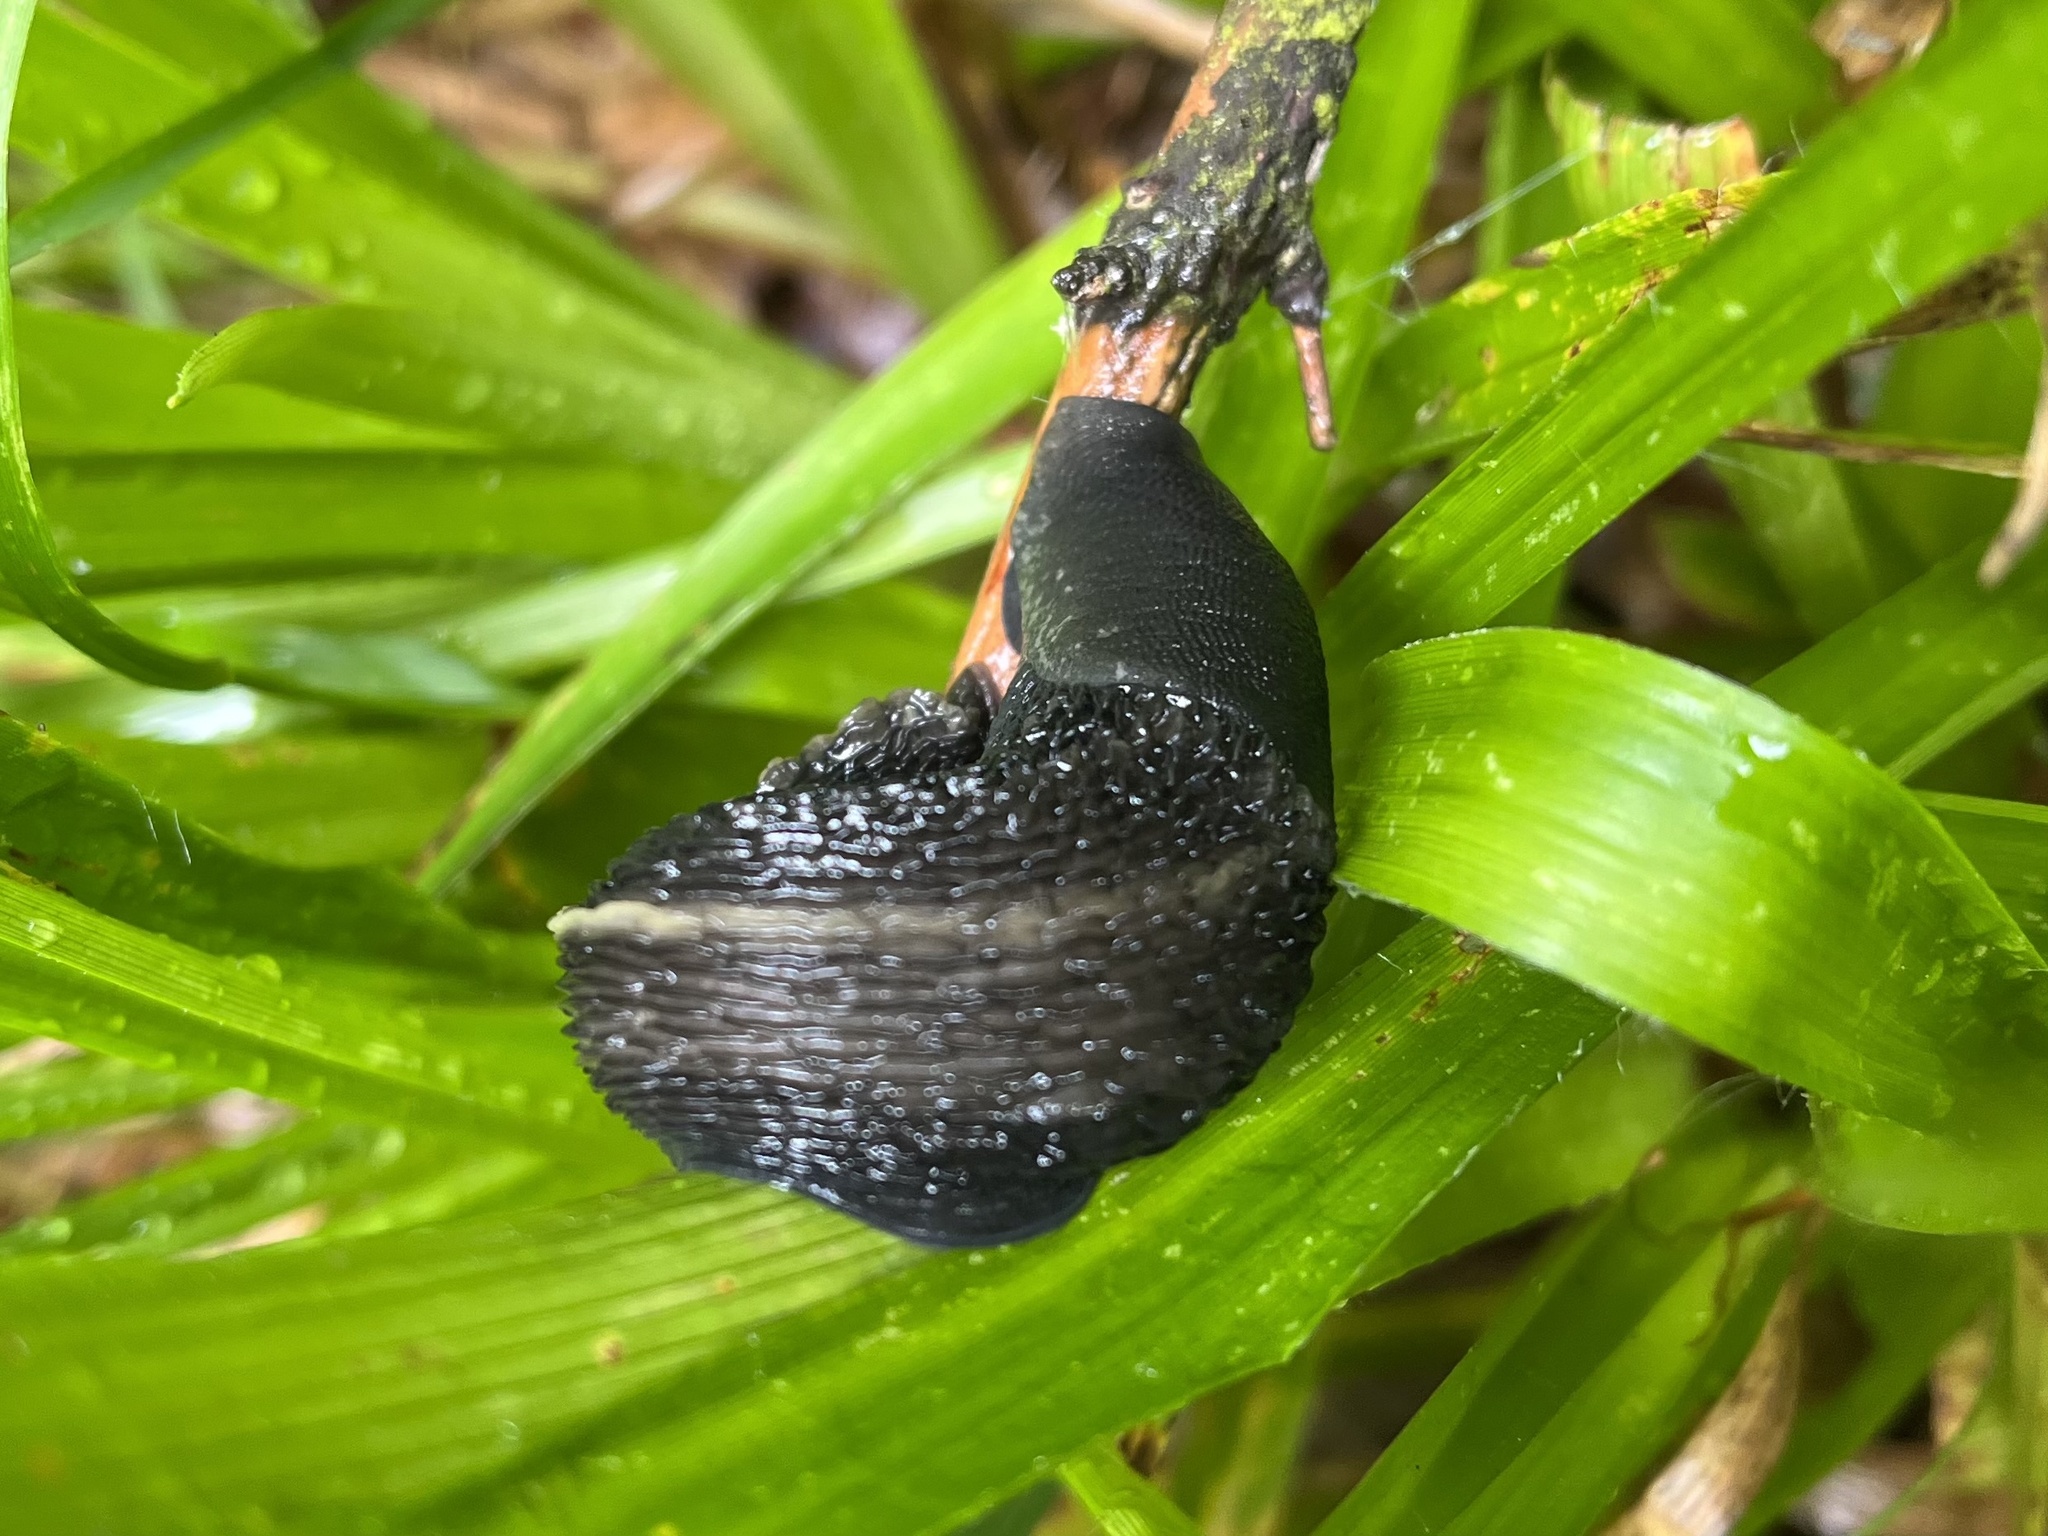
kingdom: Animalia
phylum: Mollusca
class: Gastropoda
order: Stylommatophora
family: Limacidae
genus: Limax
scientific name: Limax cinereoniger
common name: Ash-black slug
